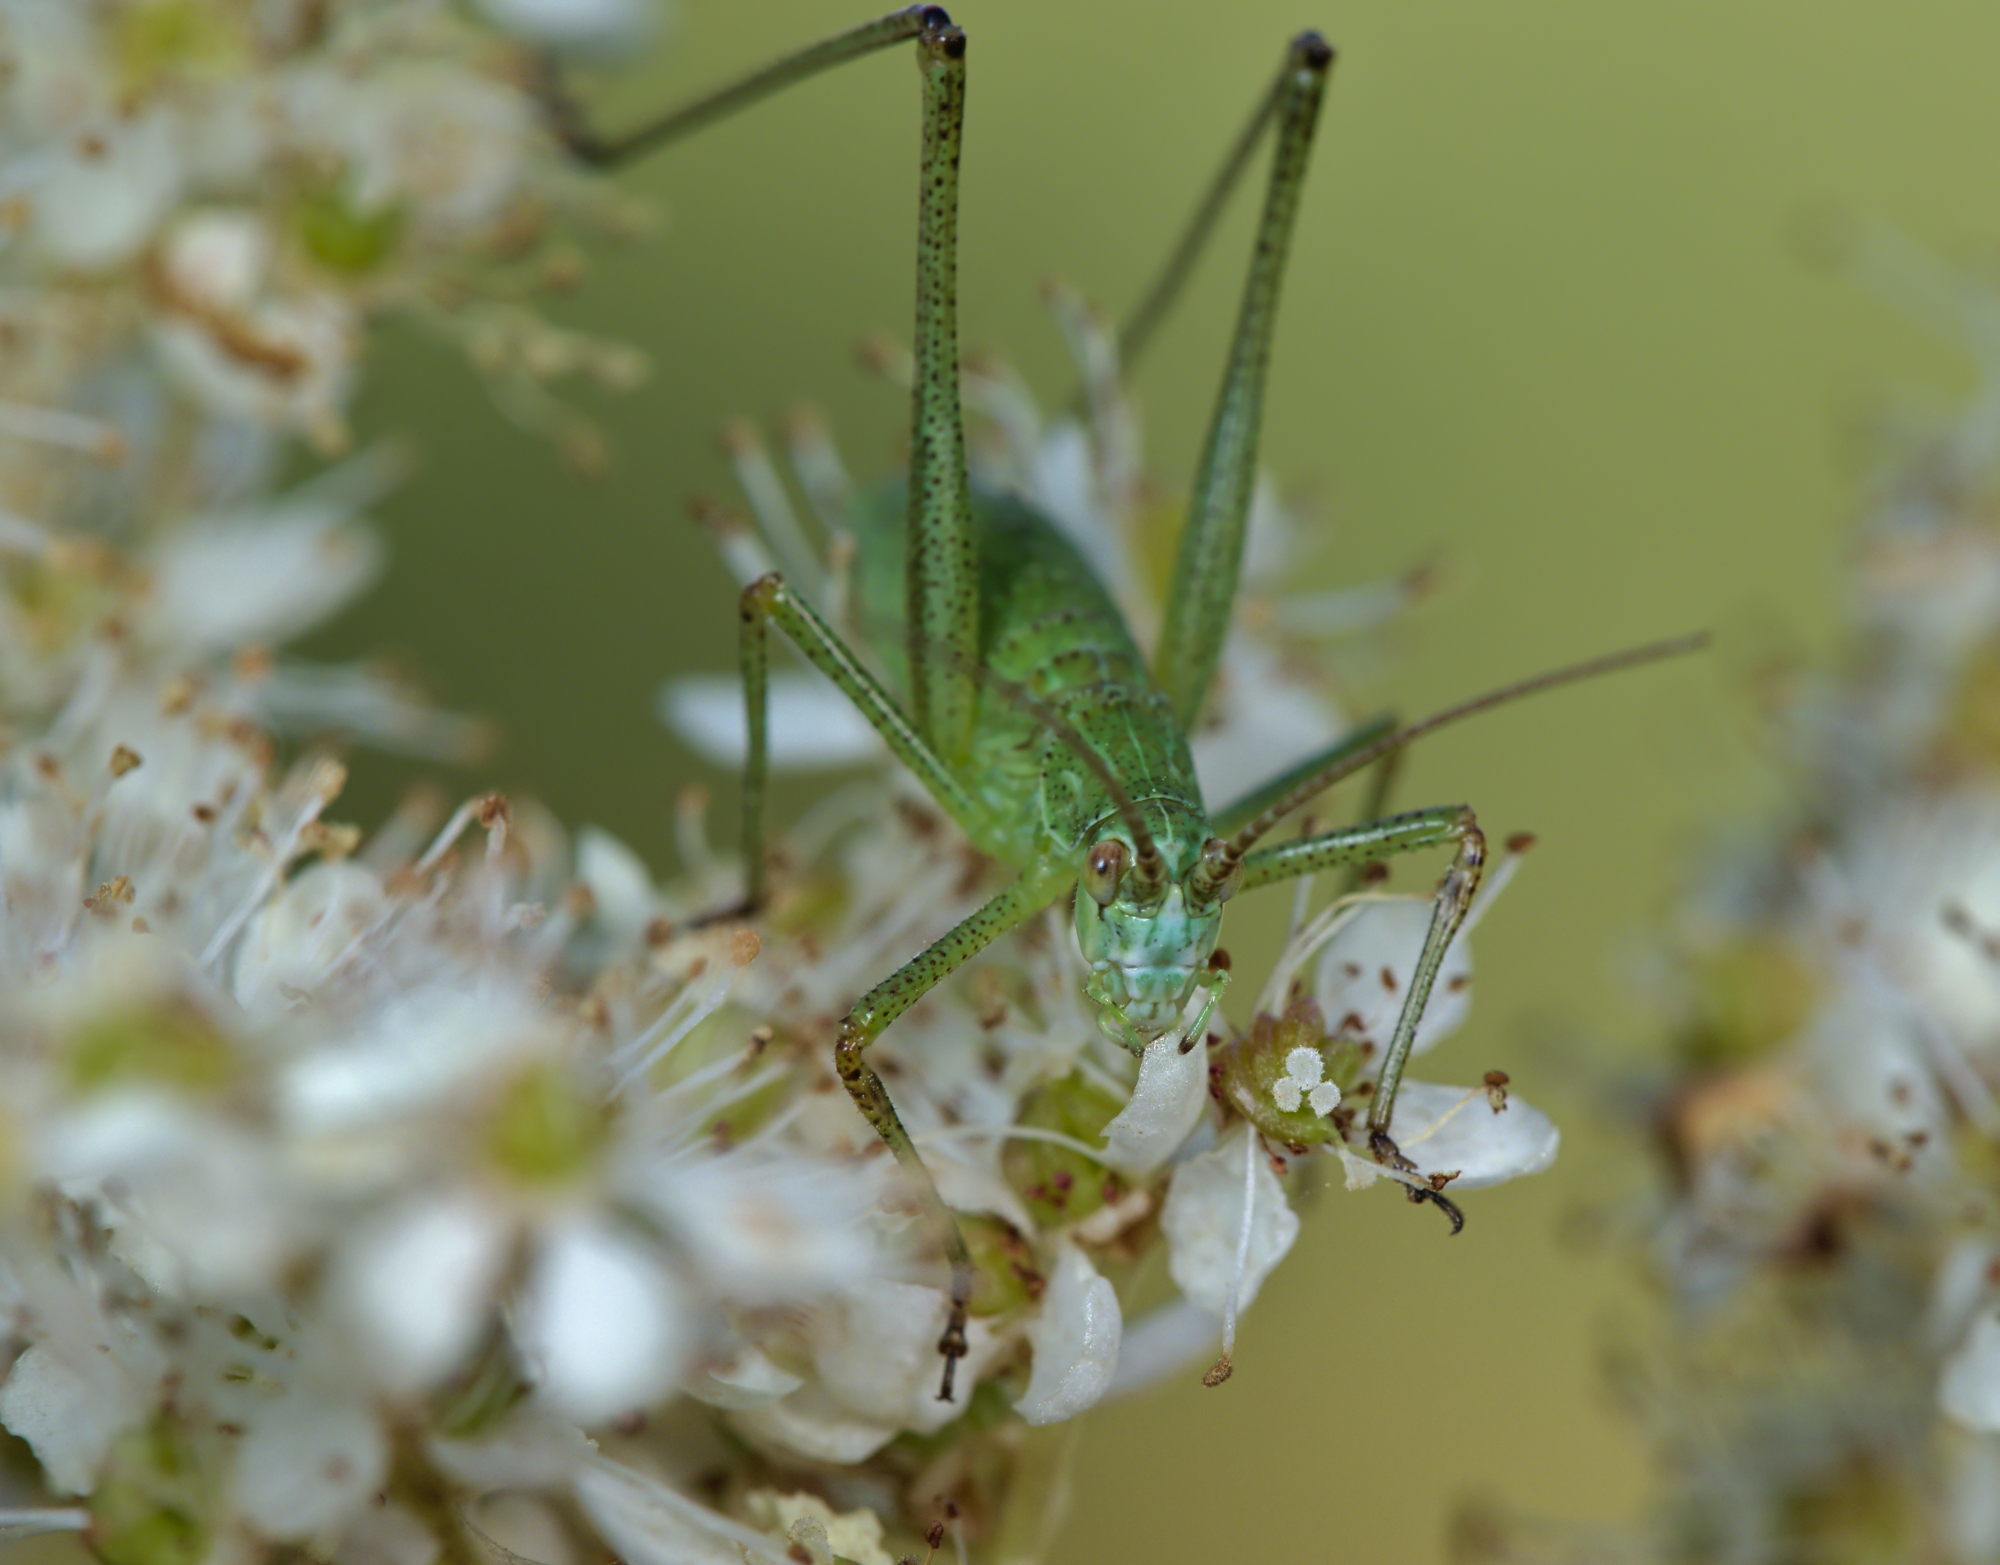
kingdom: Animalia
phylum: Arthropoda
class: Insecta
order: Orthoptera
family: Tettigoniidae
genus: Phaneroptera
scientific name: Phaneroptera falcata
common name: Sickle-bearing bush-cricket
